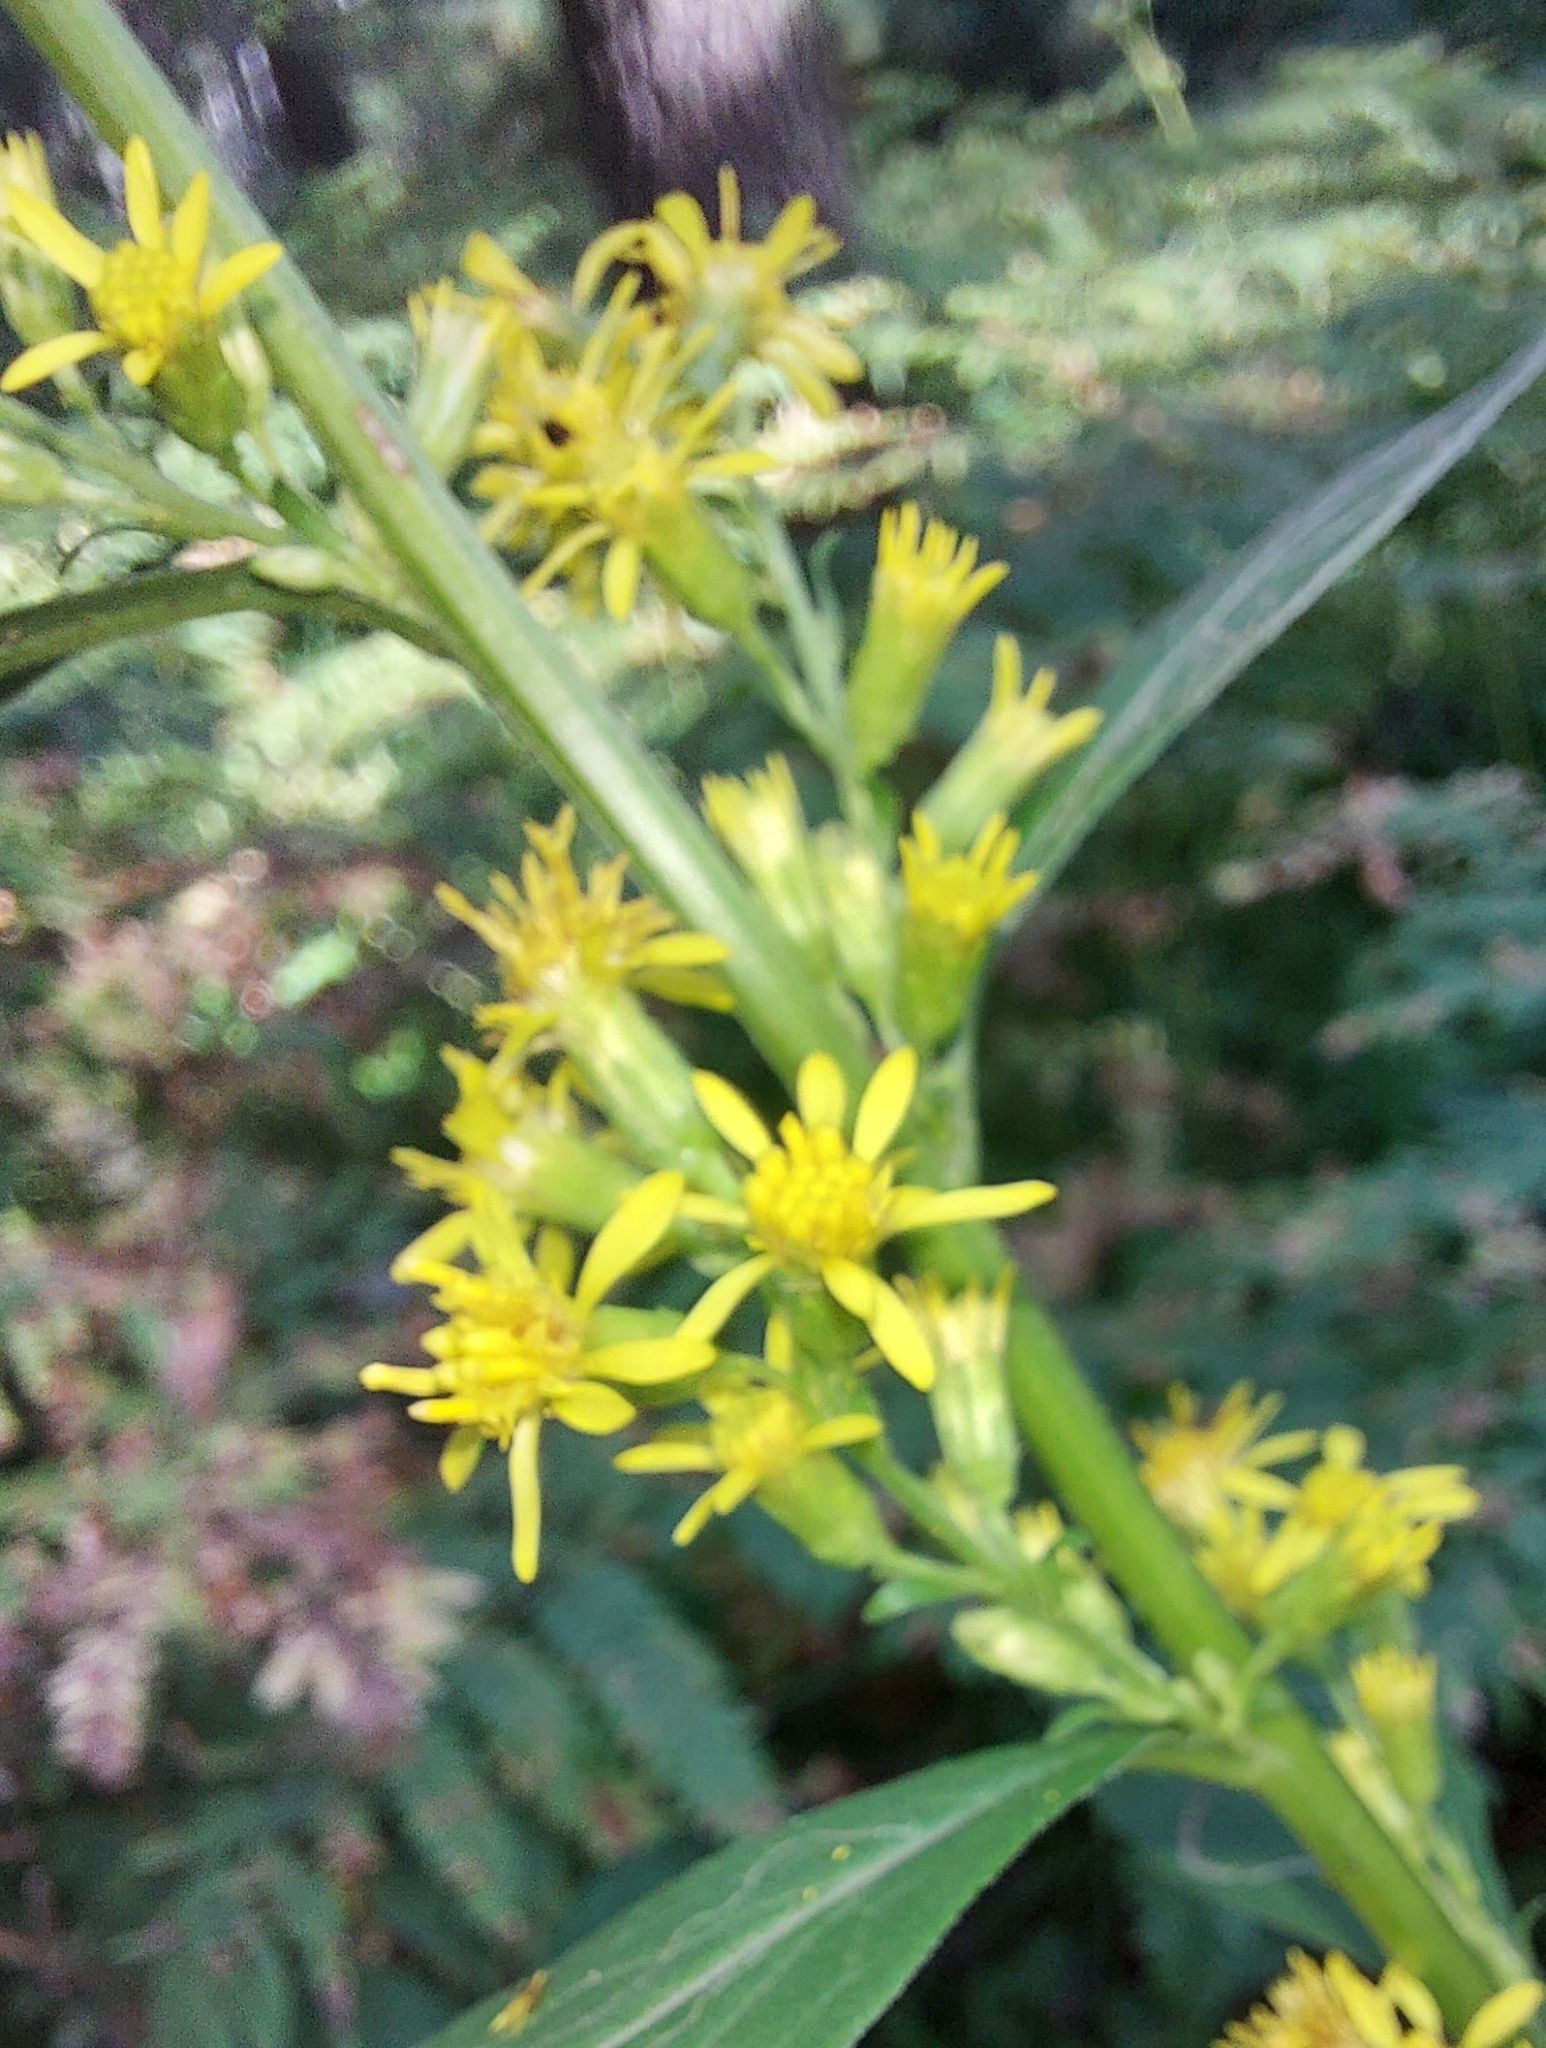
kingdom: Plantae
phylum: Tracheophyta
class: Magnoliopsida
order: Asterales
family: Asteraceae
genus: Solidago
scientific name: Solidago virgaurea
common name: Goldenrod
